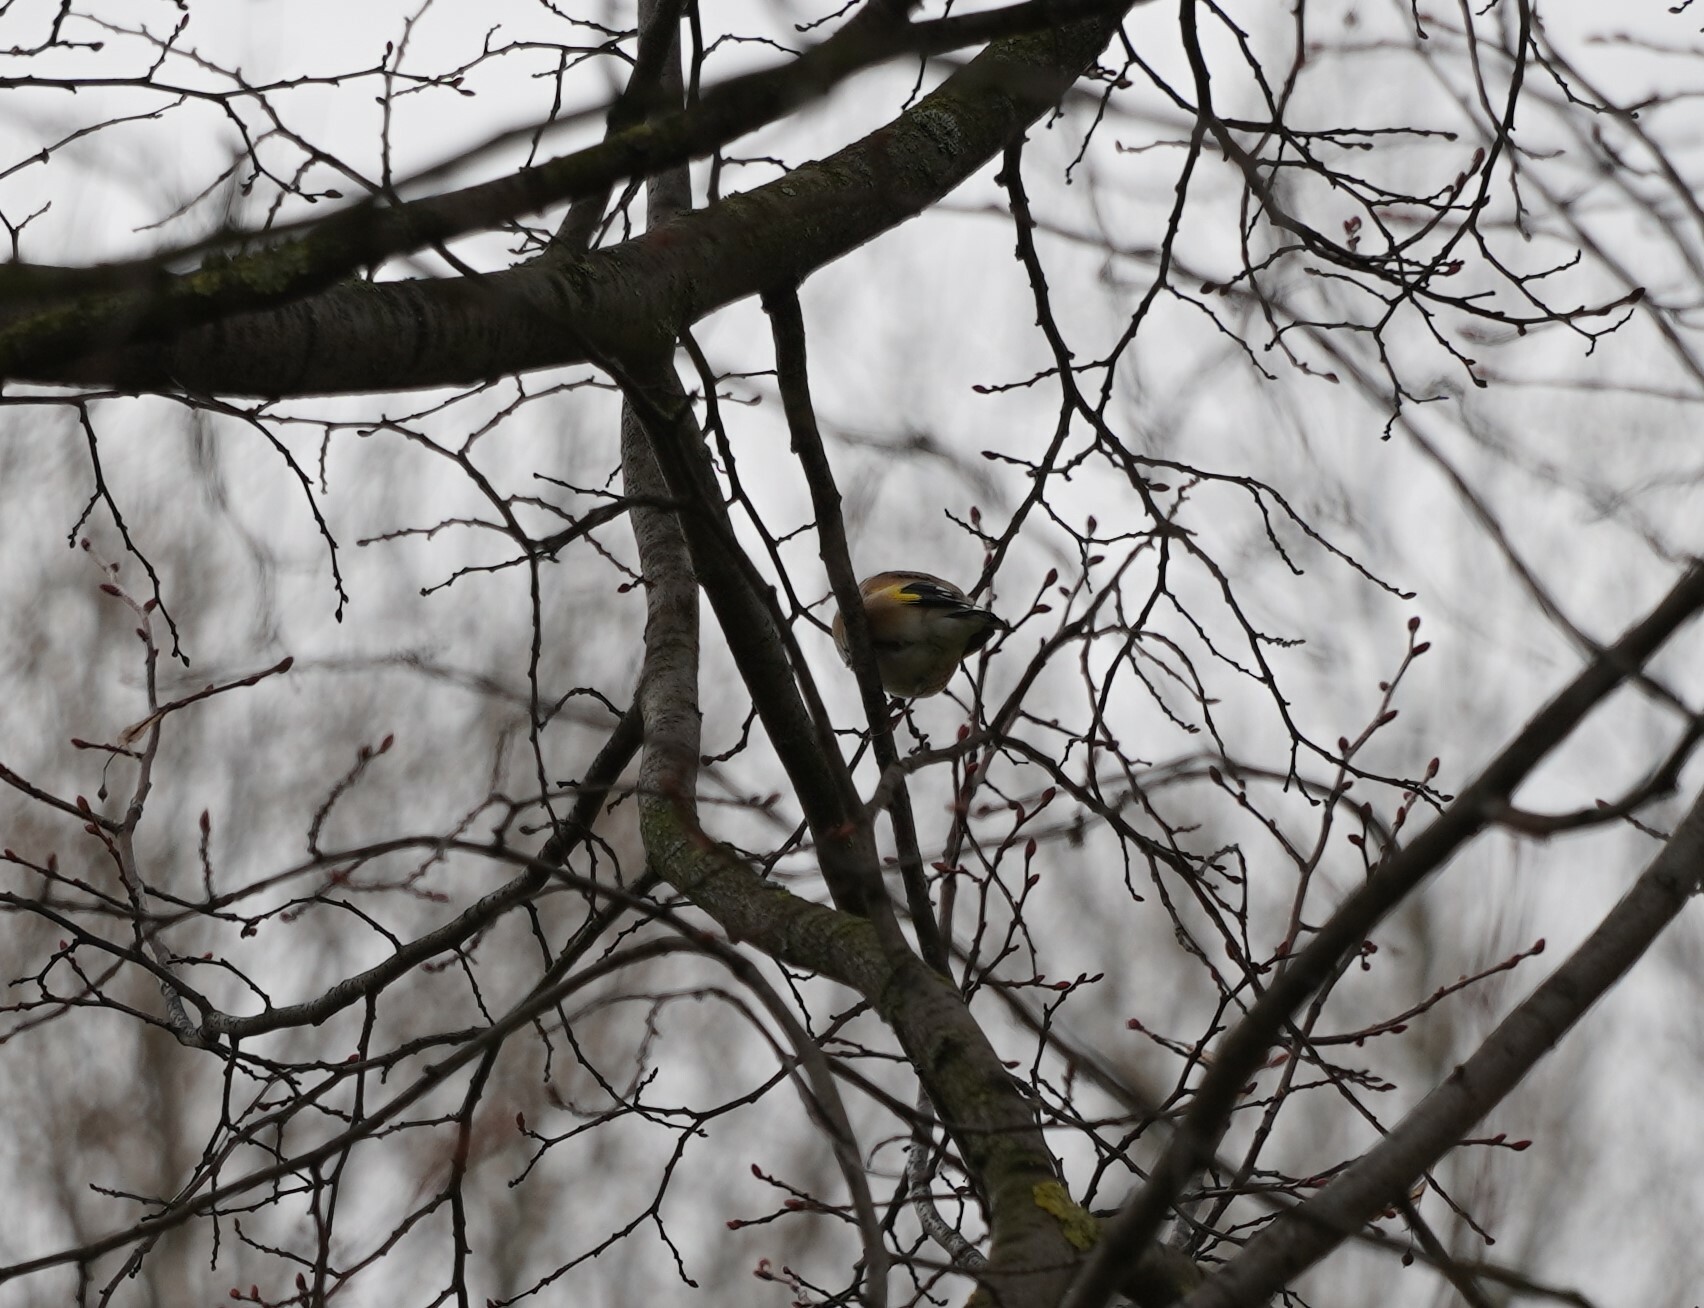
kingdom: Animalia
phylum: Chordata
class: Aves
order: Passeriformes
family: Fringillidae
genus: Carduelis
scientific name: Carduelis carduelis
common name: European goldfinch
